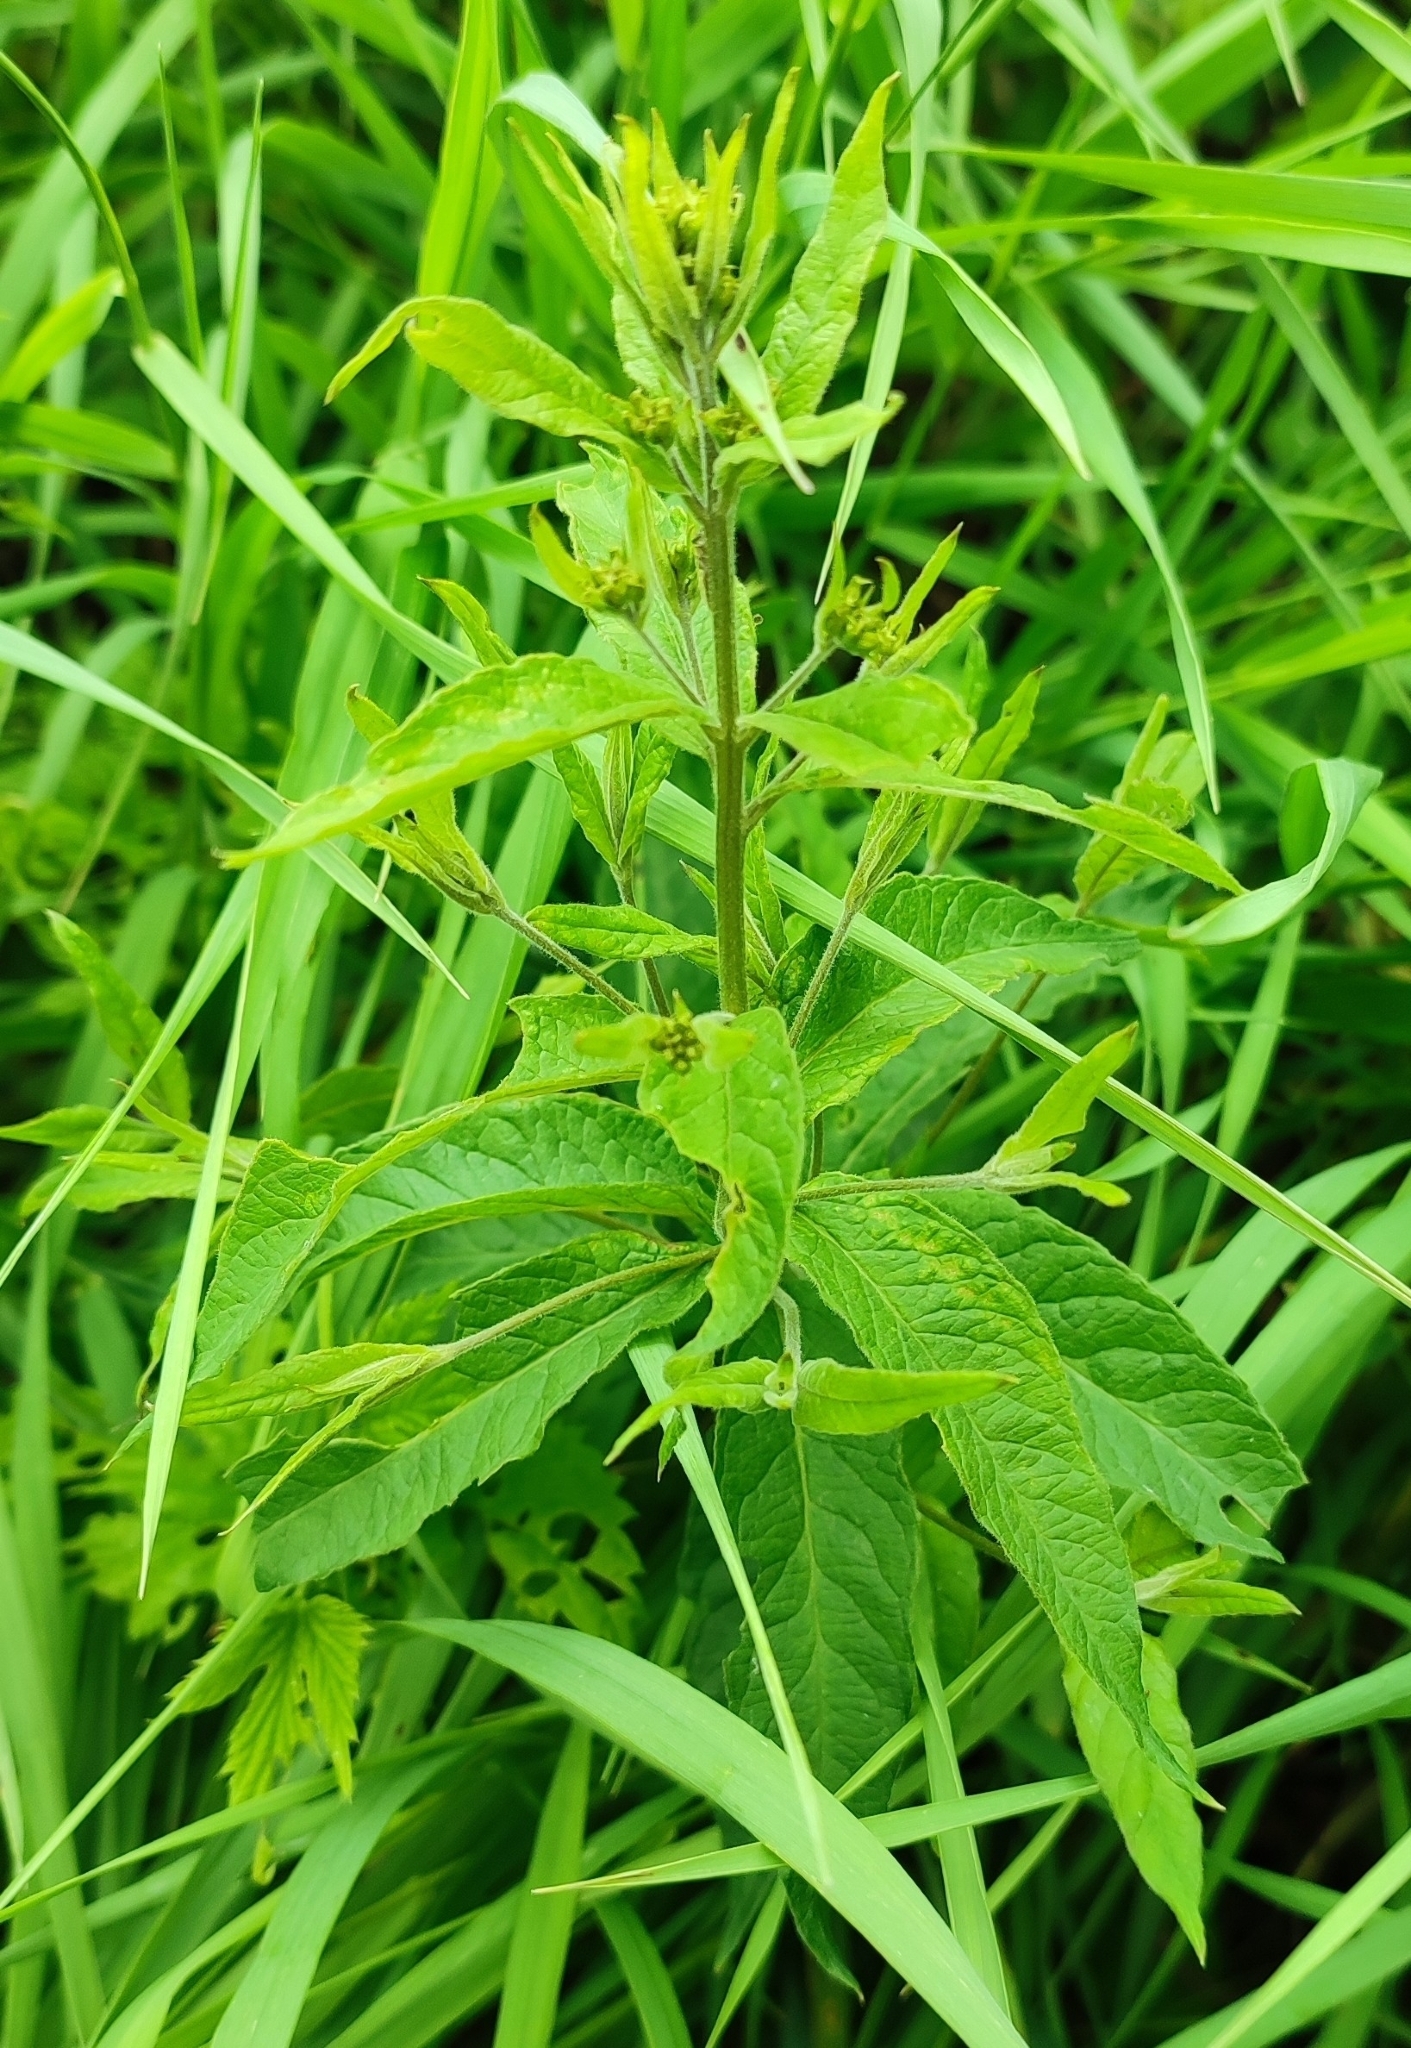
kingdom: Plantae
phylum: Tracheophyta
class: Magnoliopsida
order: Ericales
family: Primulaceae
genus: Lysimachia
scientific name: Lysimachia vulgaris
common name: Yellow loosestrife
